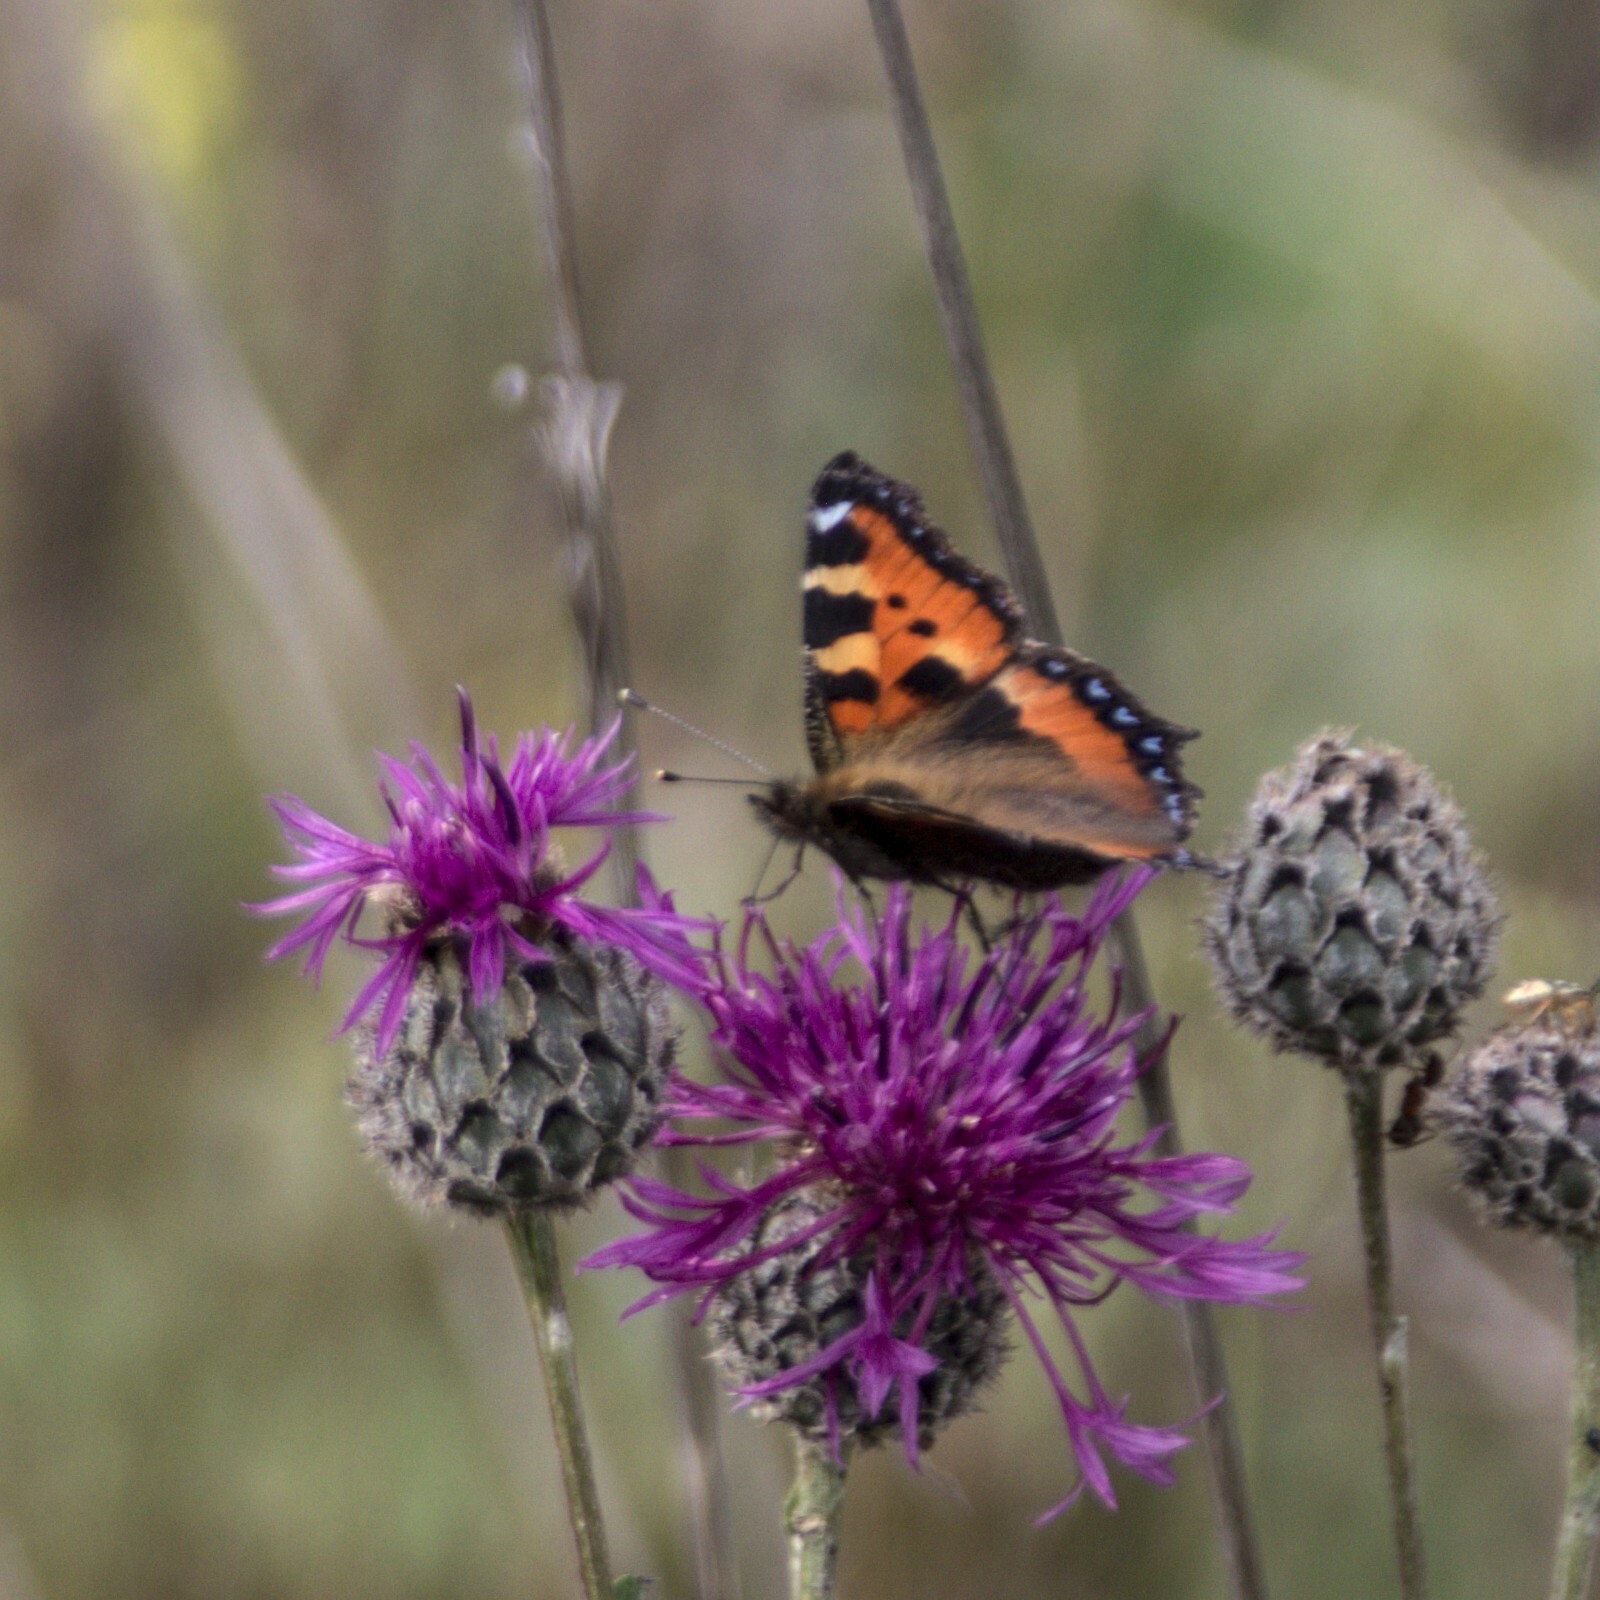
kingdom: Animalia
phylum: Arthropoda
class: Insecta
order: Lepidoptera
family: Nymphalidae
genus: Aglais
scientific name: Aglais urticae
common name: Small tortoiseshell
